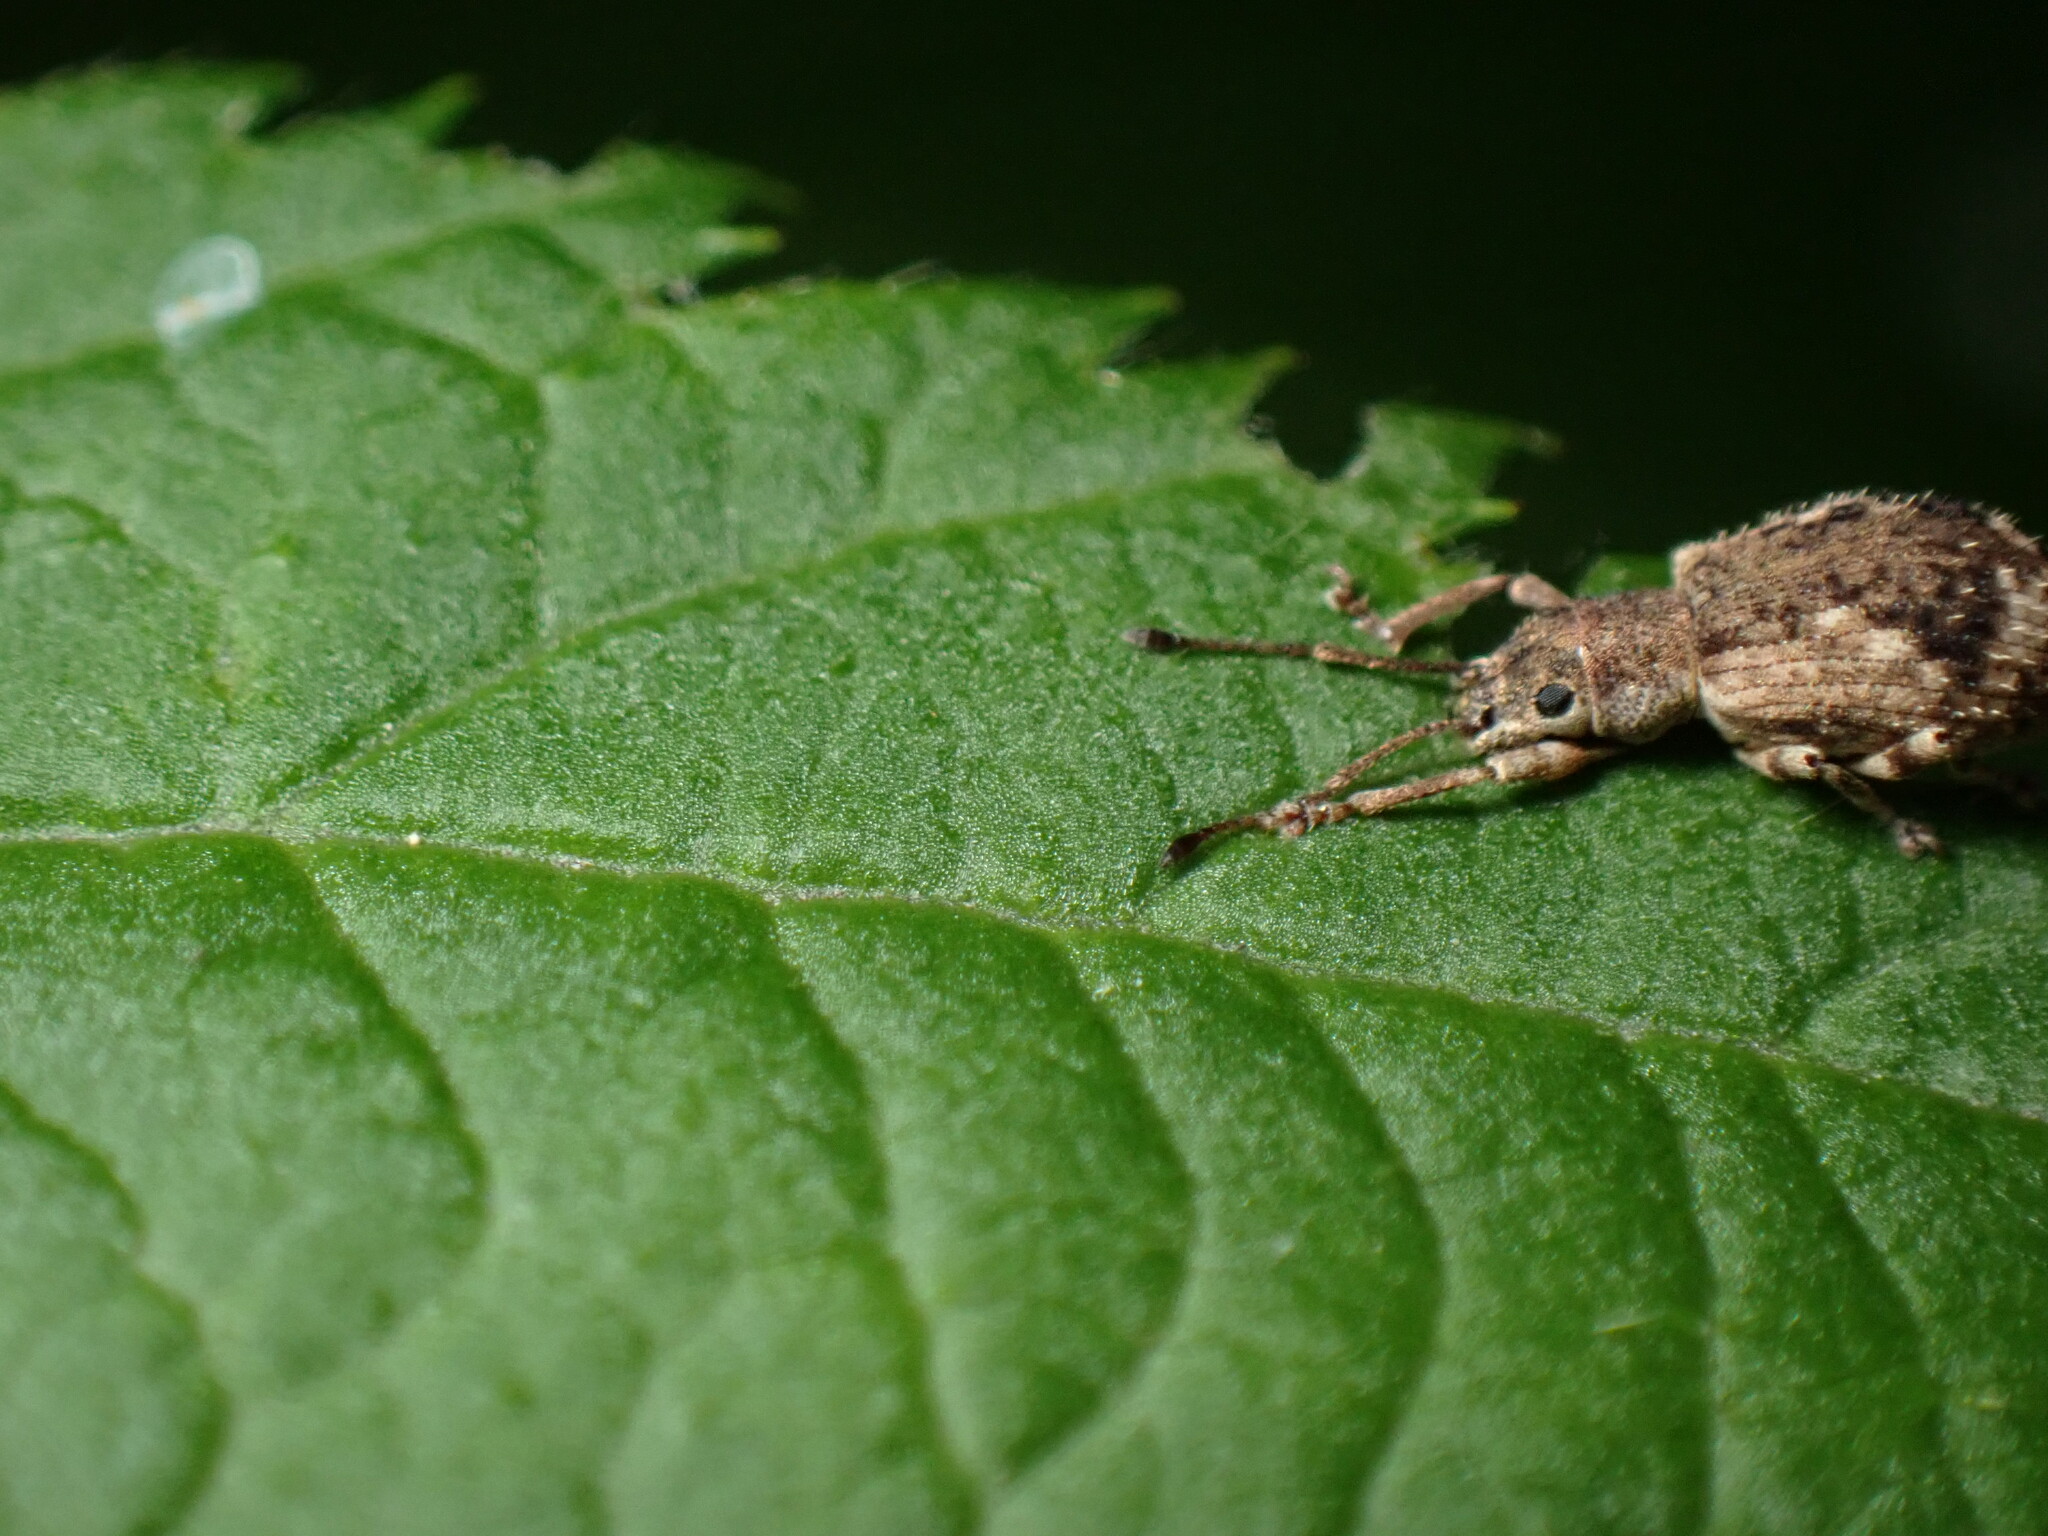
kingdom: Animalia
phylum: Arthropoda
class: Insecta
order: Coleoptera
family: Curculionidae
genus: Pseudoedophrys
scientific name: Pseudoedophrys hilleri
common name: Weevil
